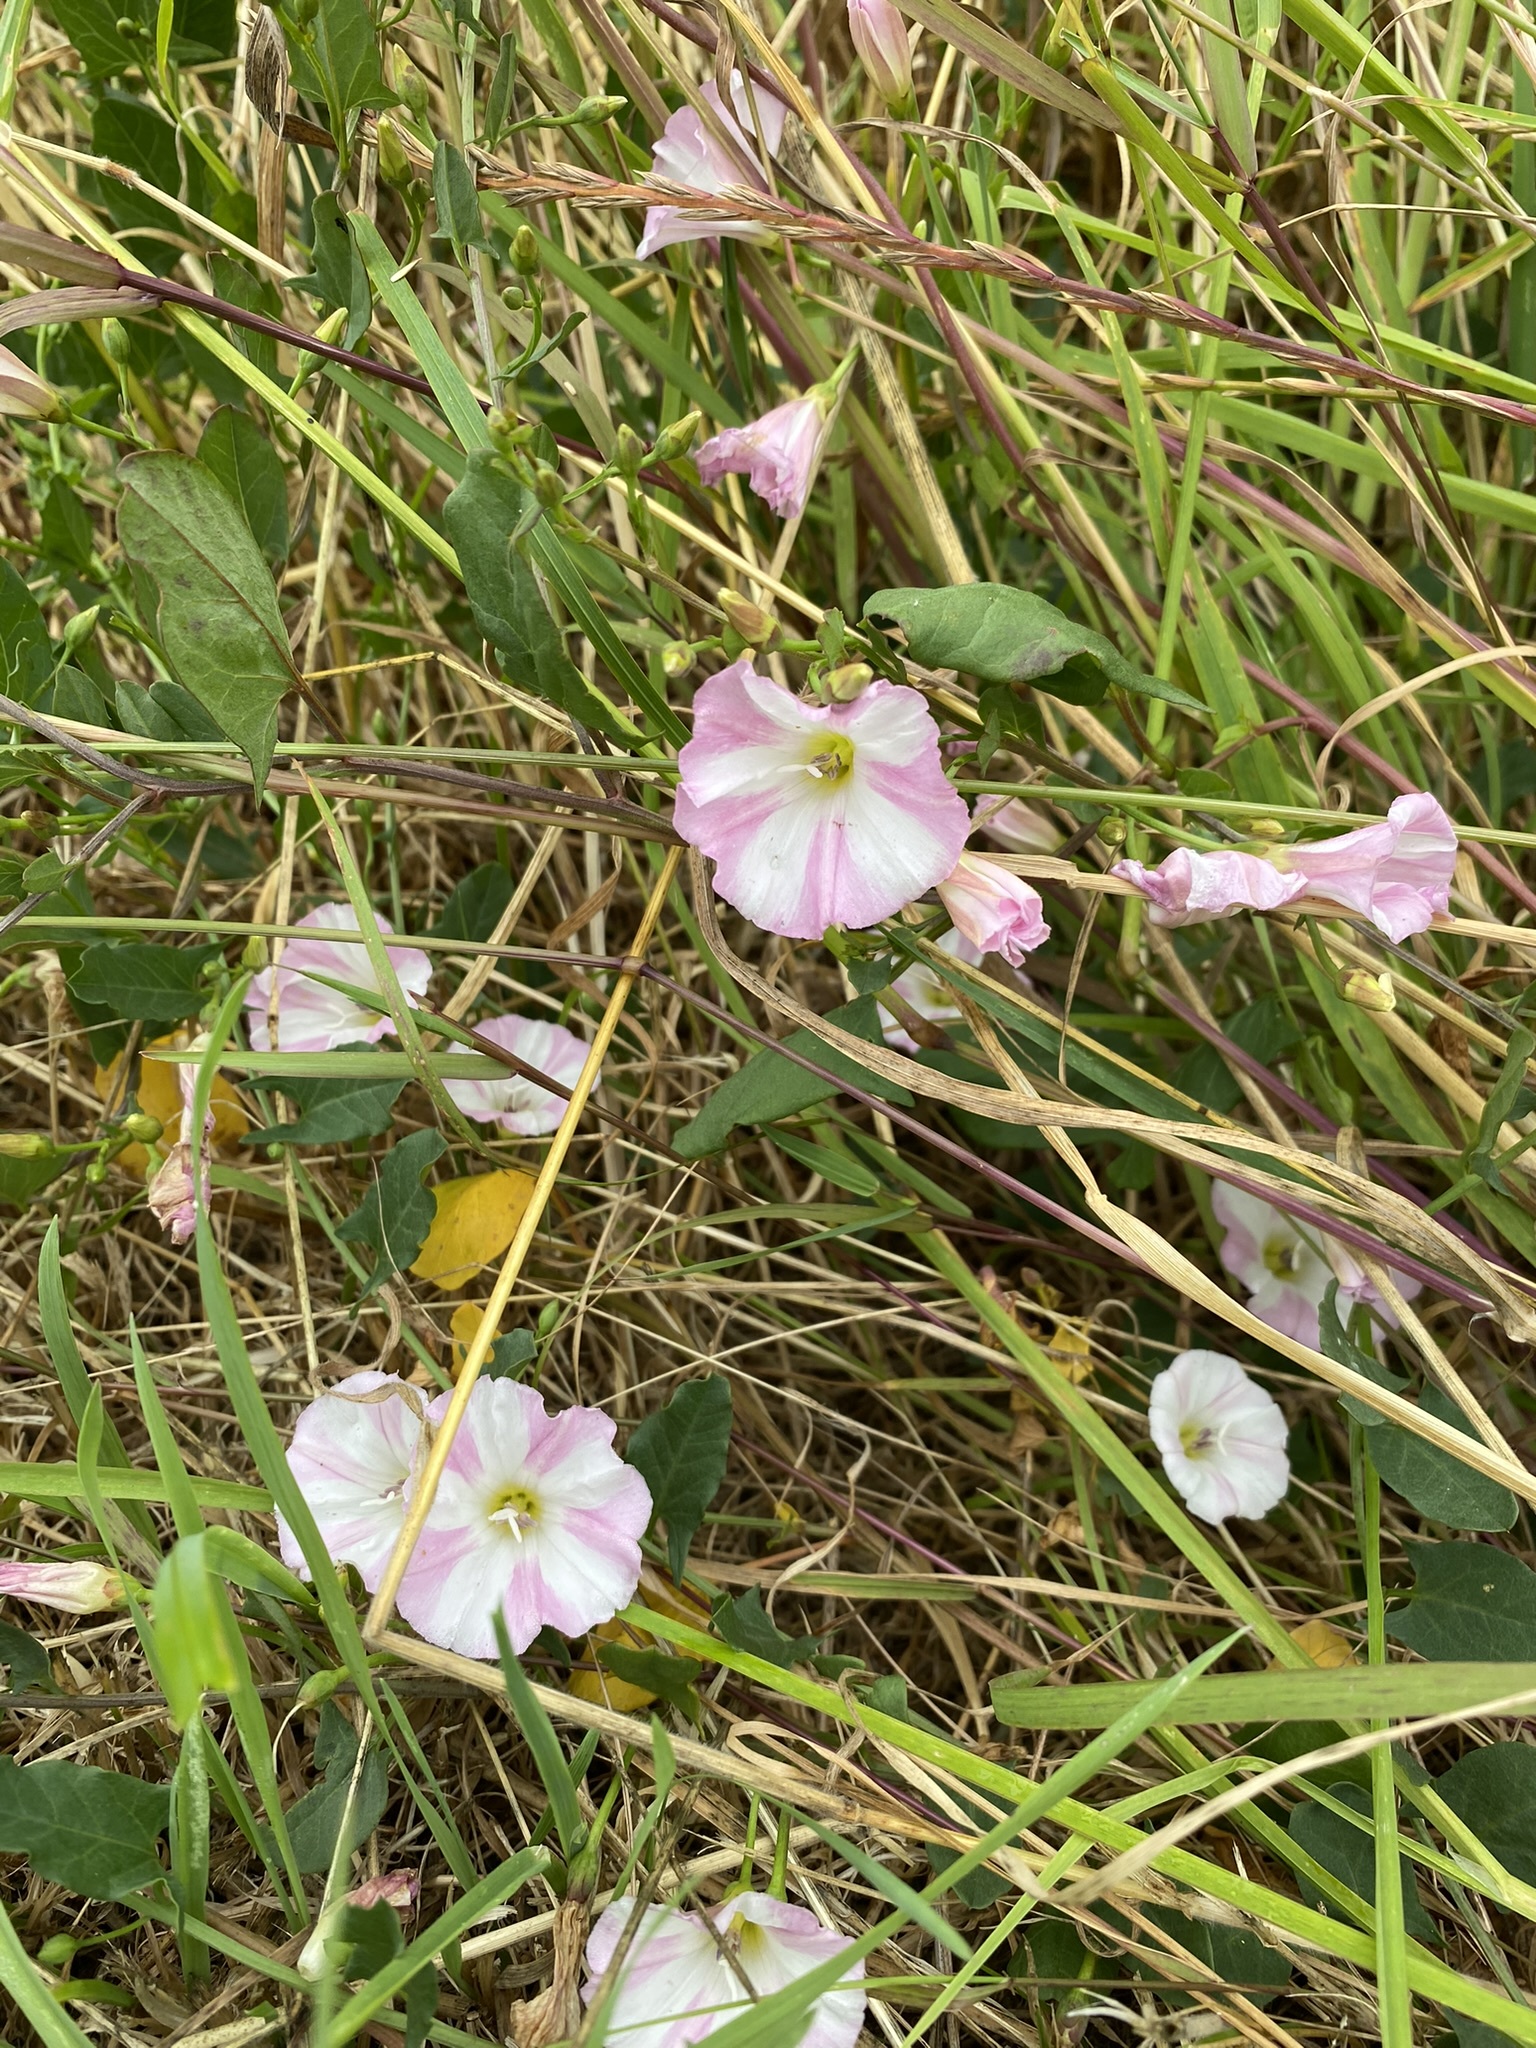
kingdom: Plantae
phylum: Tracheophyta
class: Magnoliopsida
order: Solanales
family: Convolvulaceae
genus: Convolvulus
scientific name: Convolvulus arvensis
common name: Field bindweed
